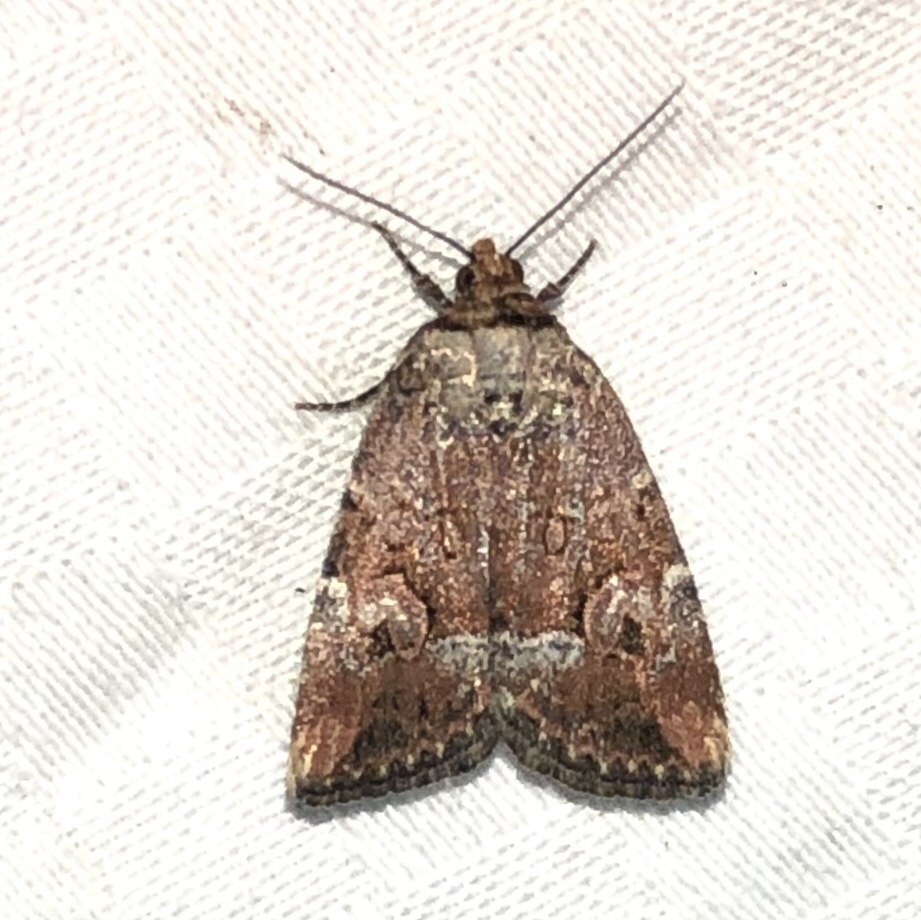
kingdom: Animalia
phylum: Arthropoda
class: Insecta
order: Lepidoptera
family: Noctuidae
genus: Elaphria
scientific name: Elaphria alapallida
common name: Pale-winged midget
